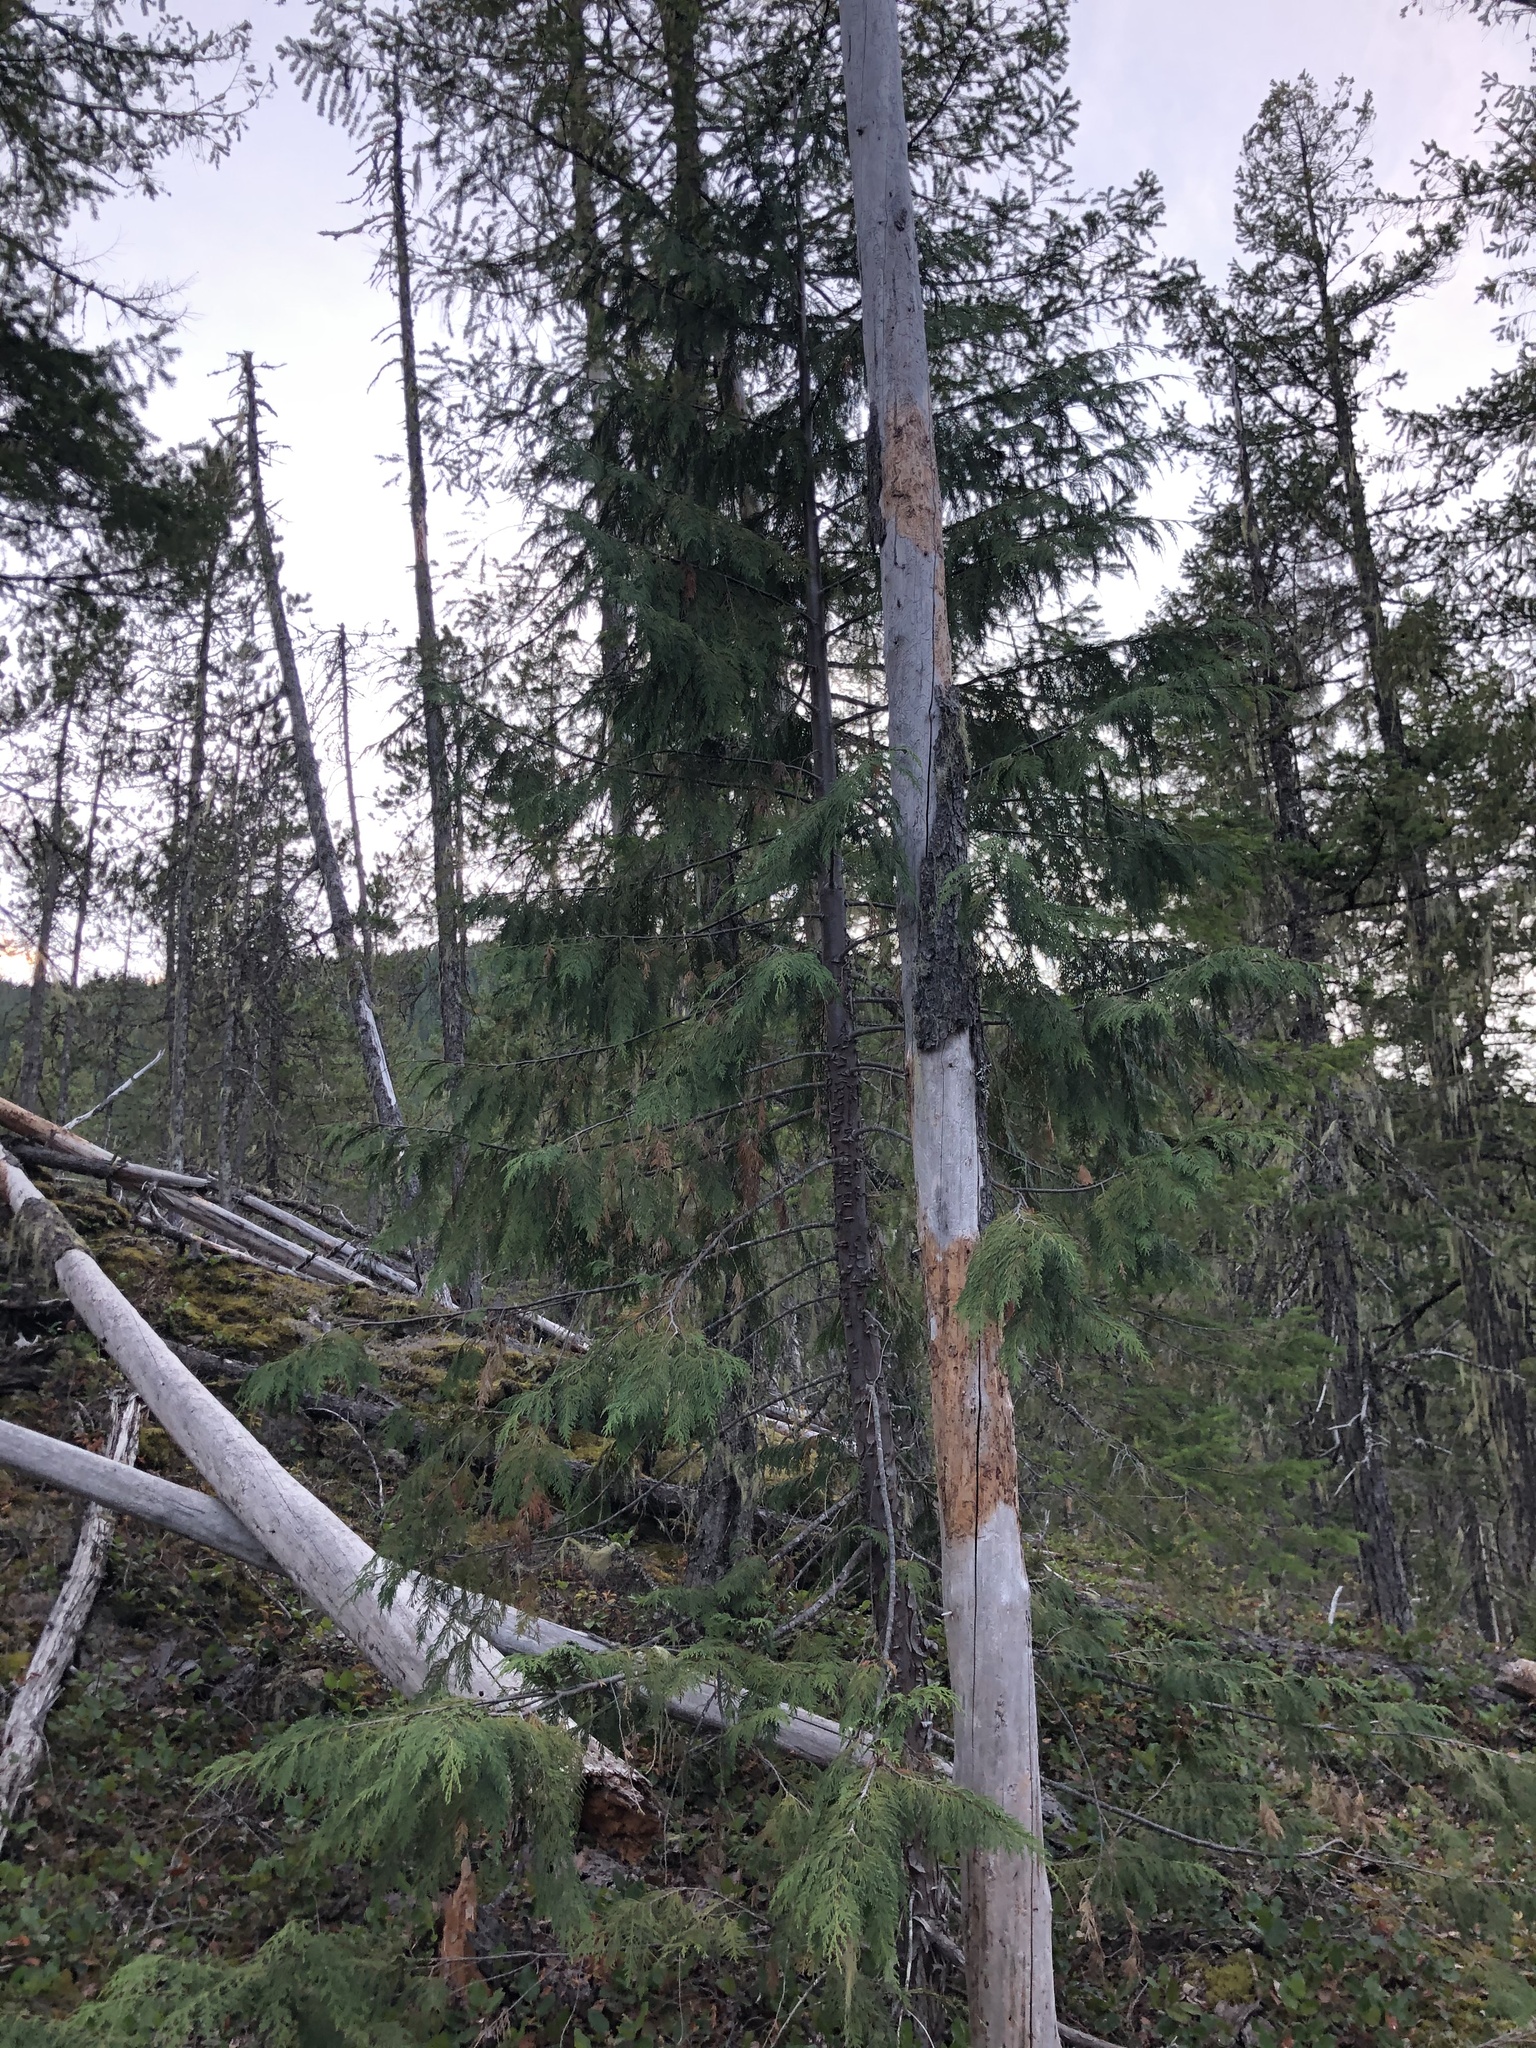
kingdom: Plantae
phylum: Tracheophyta
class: Pinopsida
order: Pinales
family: Cupressaceae
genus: Xanthocyparis
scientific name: Xanthocyparis nootkatensis
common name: Nootka cypress
